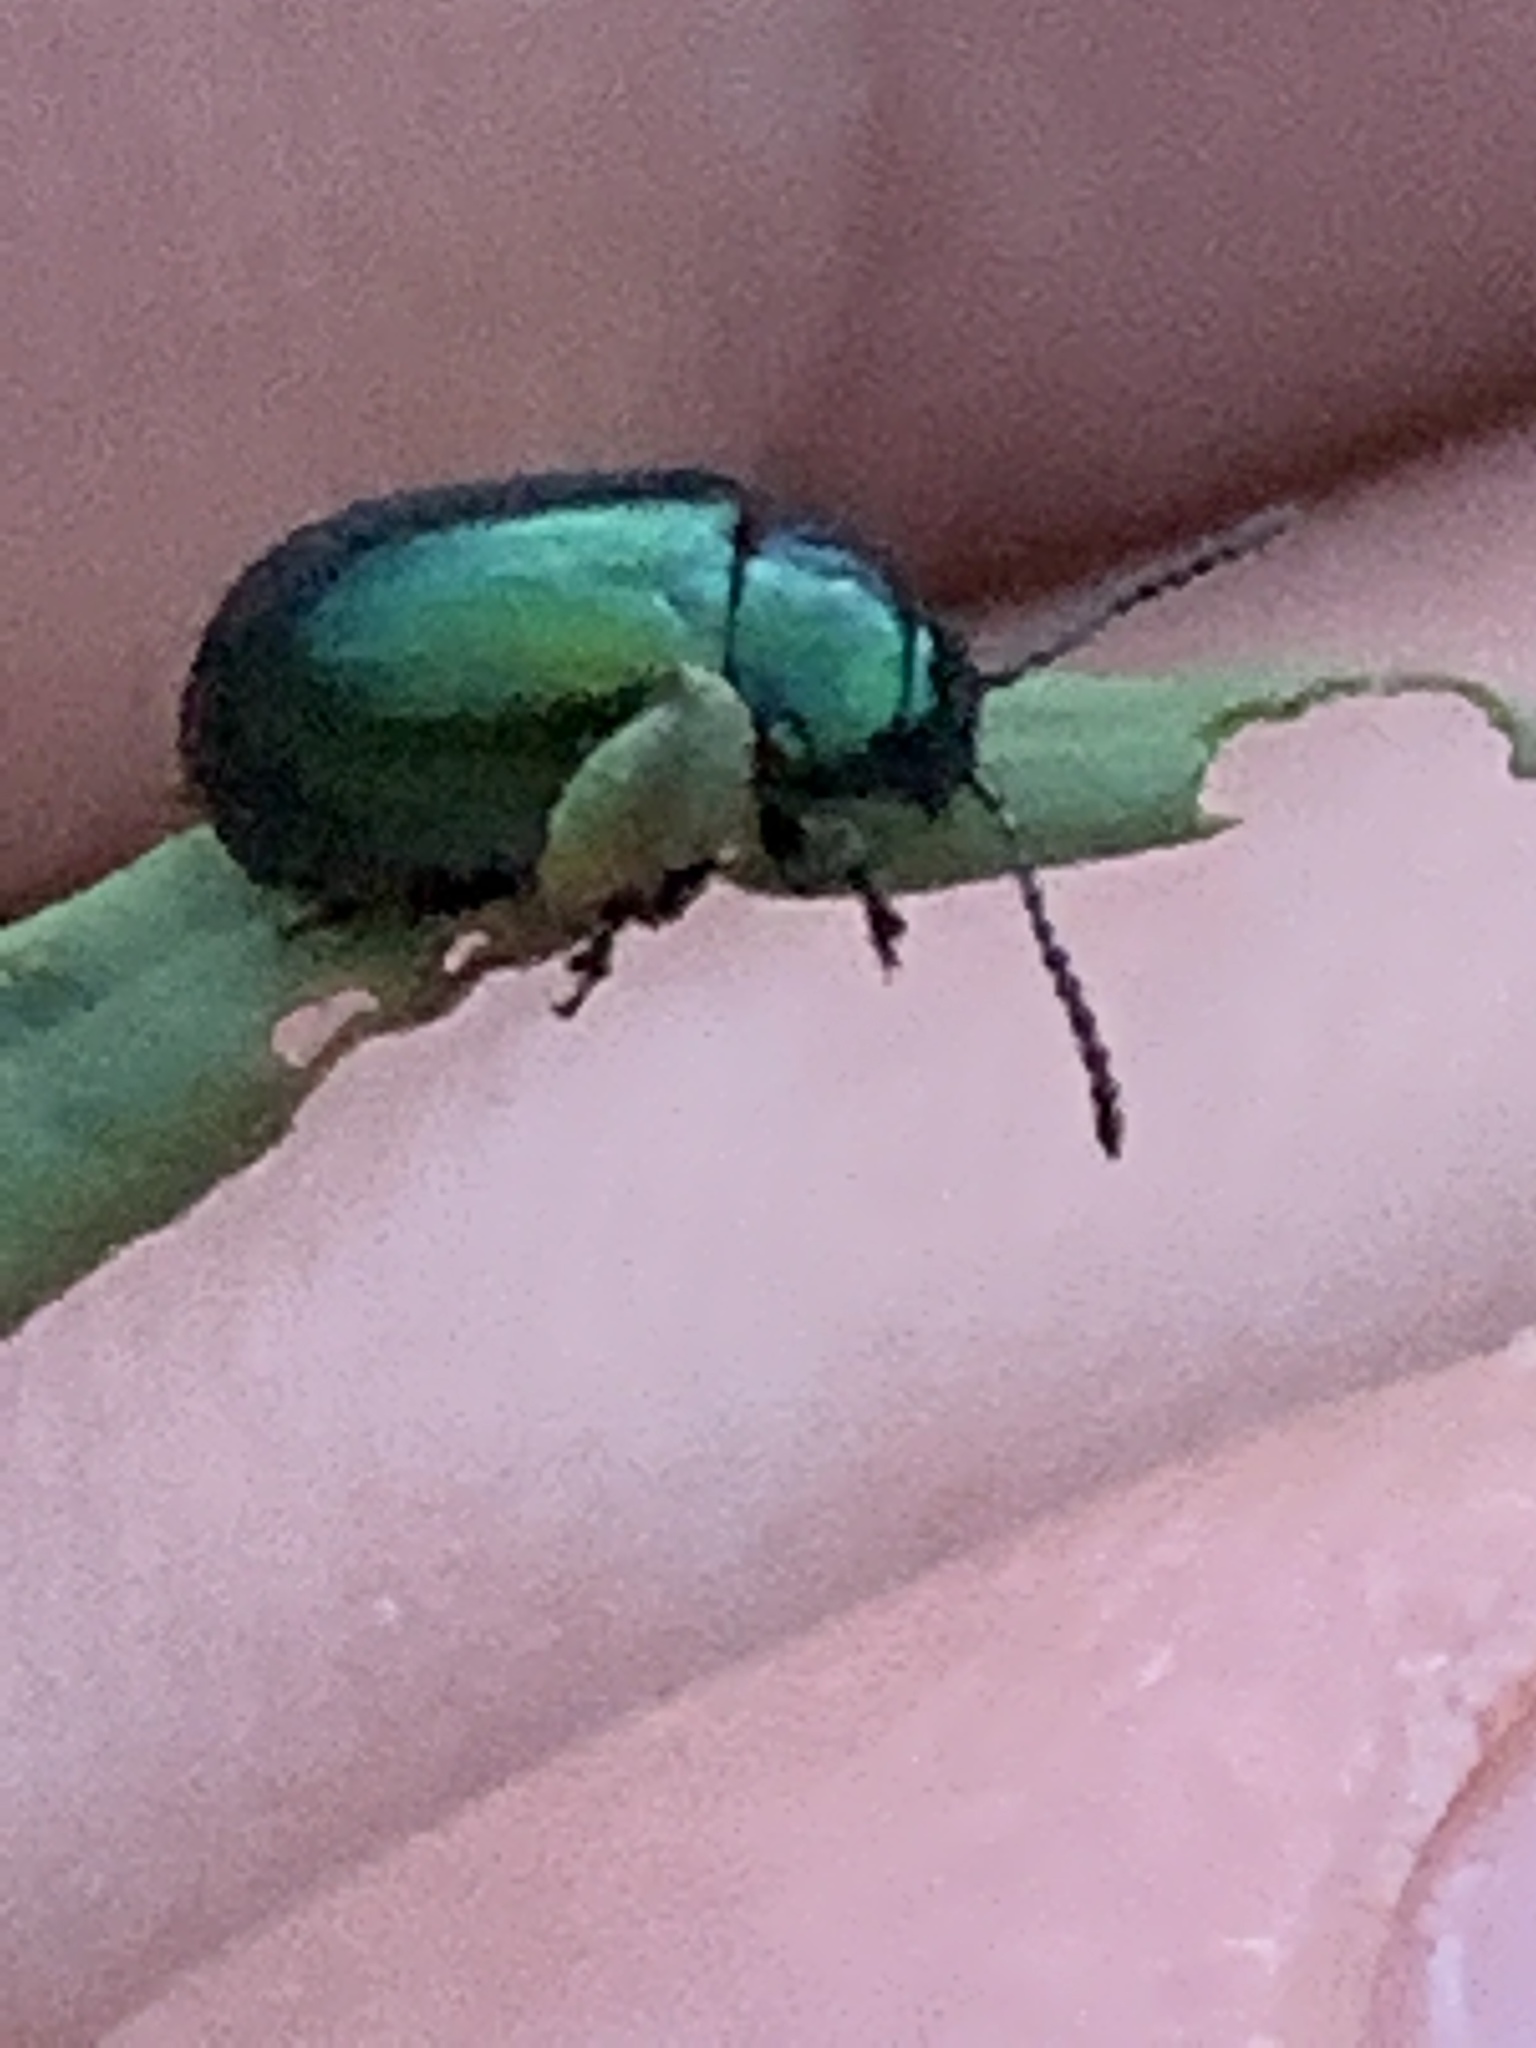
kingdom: Animalia
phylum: Arthropoda
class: Insecta
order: Coleoptera
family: Chrysomelidae
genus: Gastrophysa
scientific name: Gastrophysa cyanea
